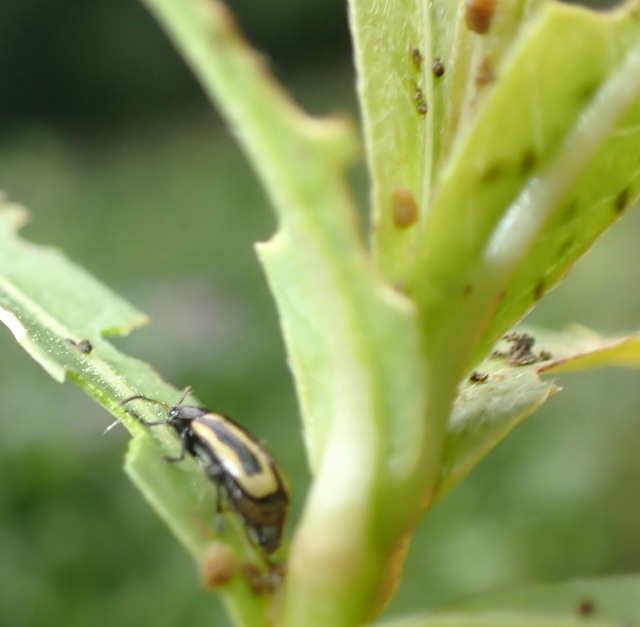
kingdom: Animalia
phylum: Arthropoda
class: Insecta
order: Coleoptera
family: Chrysomelidae
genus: Agasicles
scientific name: Agasicles hygrophila
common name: Alligatorweed flea beetle
